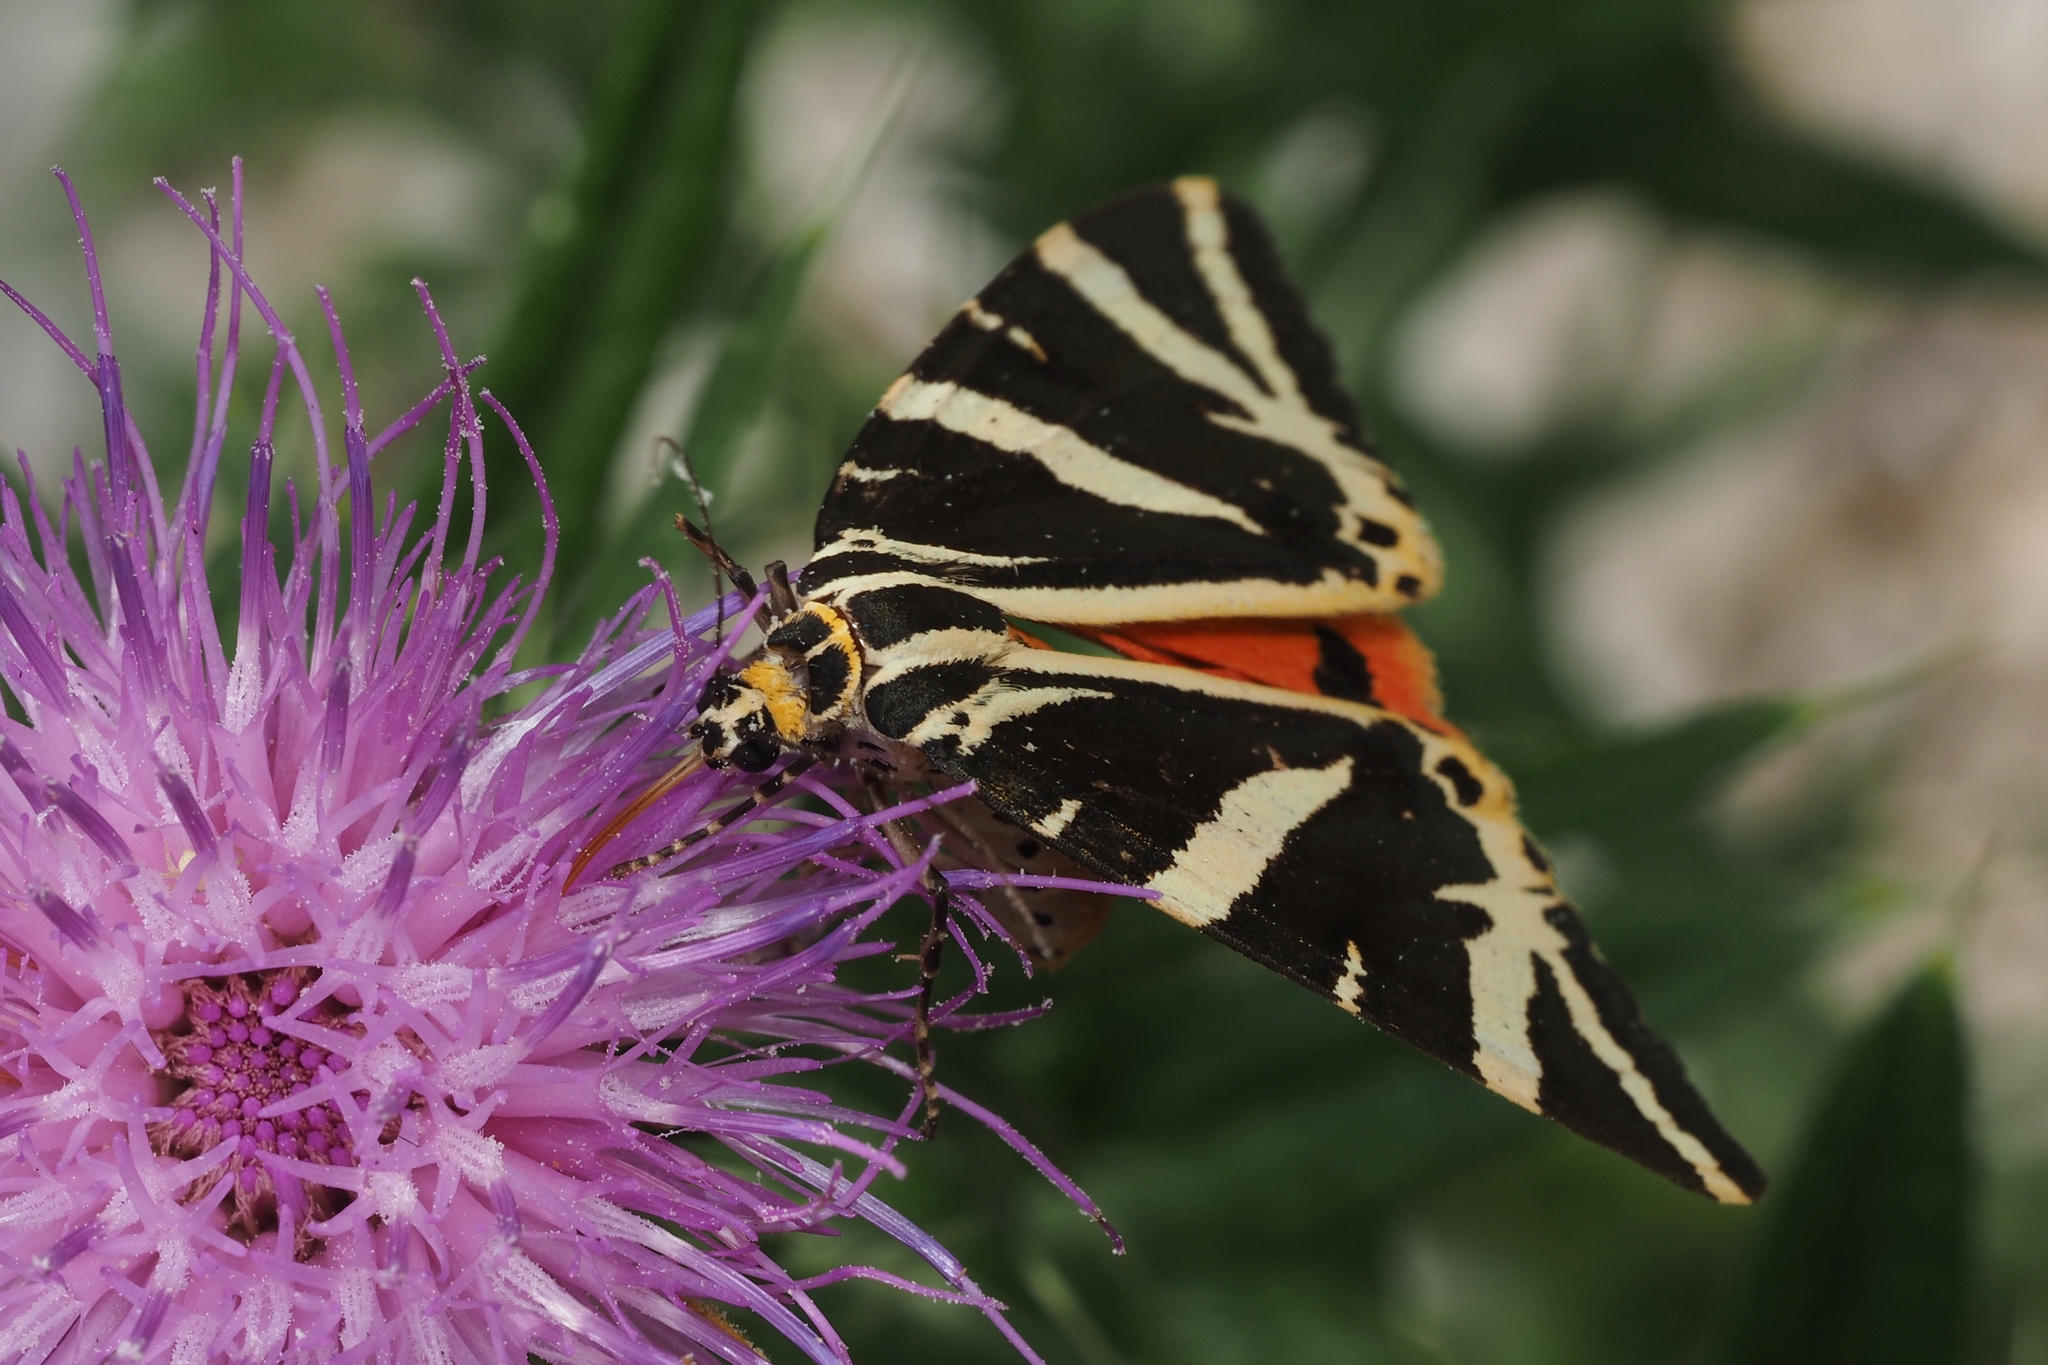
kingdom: Animalia
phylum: Arthropoda
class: Insecta
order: Lepidoptera
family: Erebidae
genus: Euplagia
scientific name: Euplagia quadripunctaria
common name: Jersey tiger
